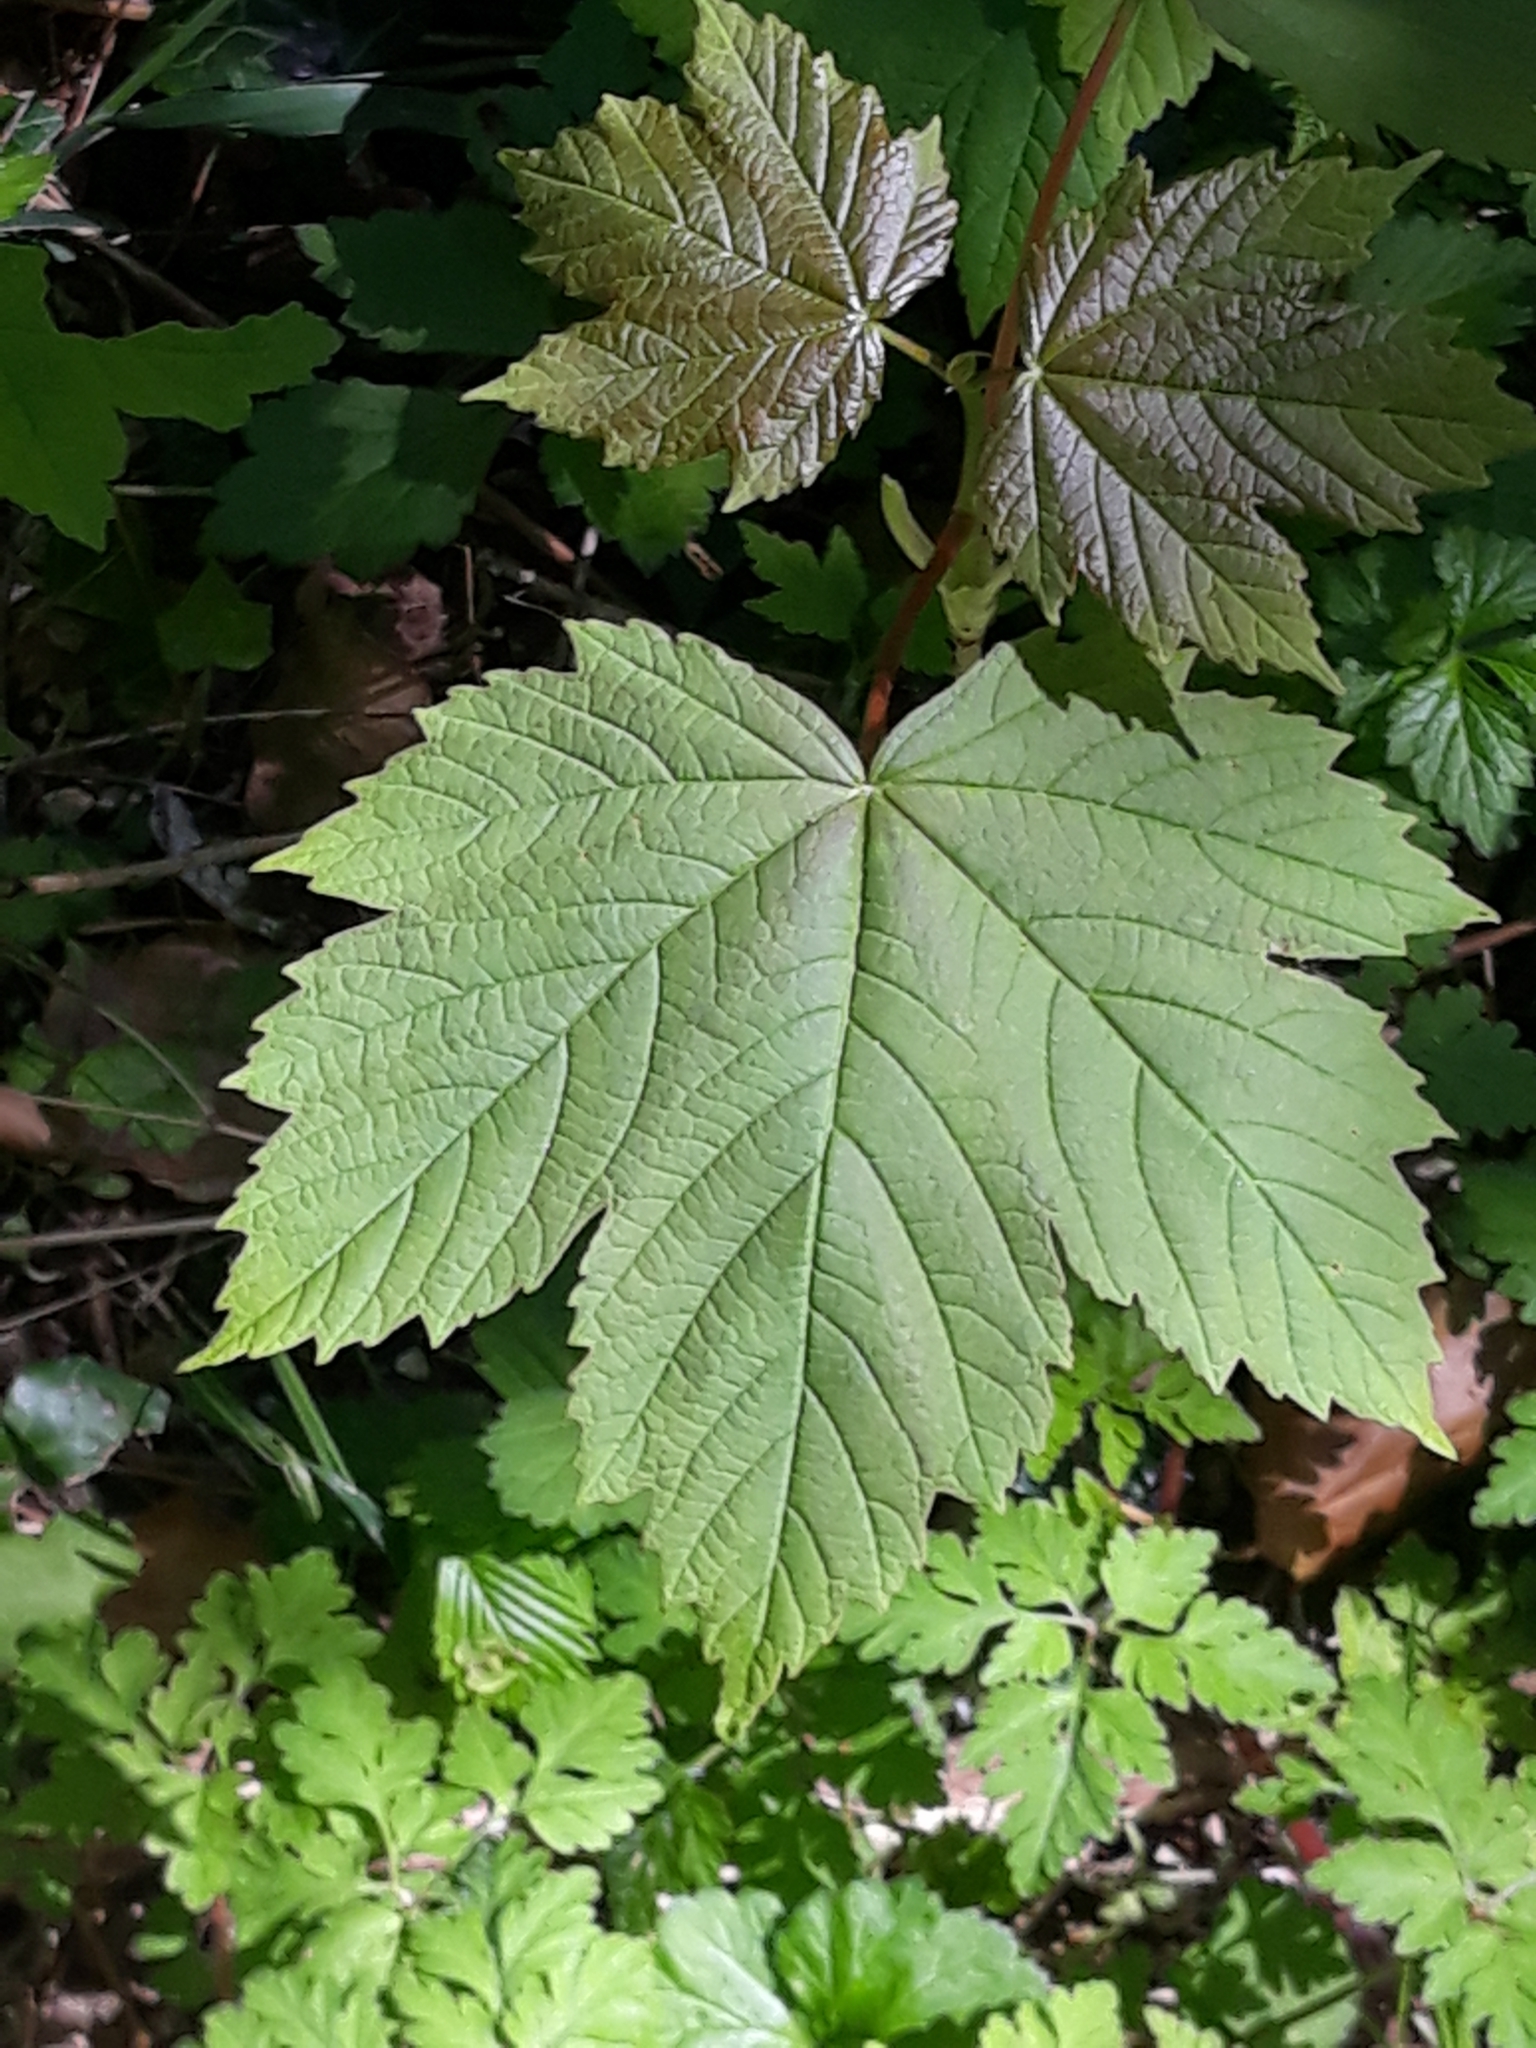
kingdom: Plantae
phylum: Tracheophyta
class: Magnoliopsida
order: Sapindales
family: Sapindaceae
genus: Acer
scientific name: Acer pseudoplatanus
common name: Sycamore
